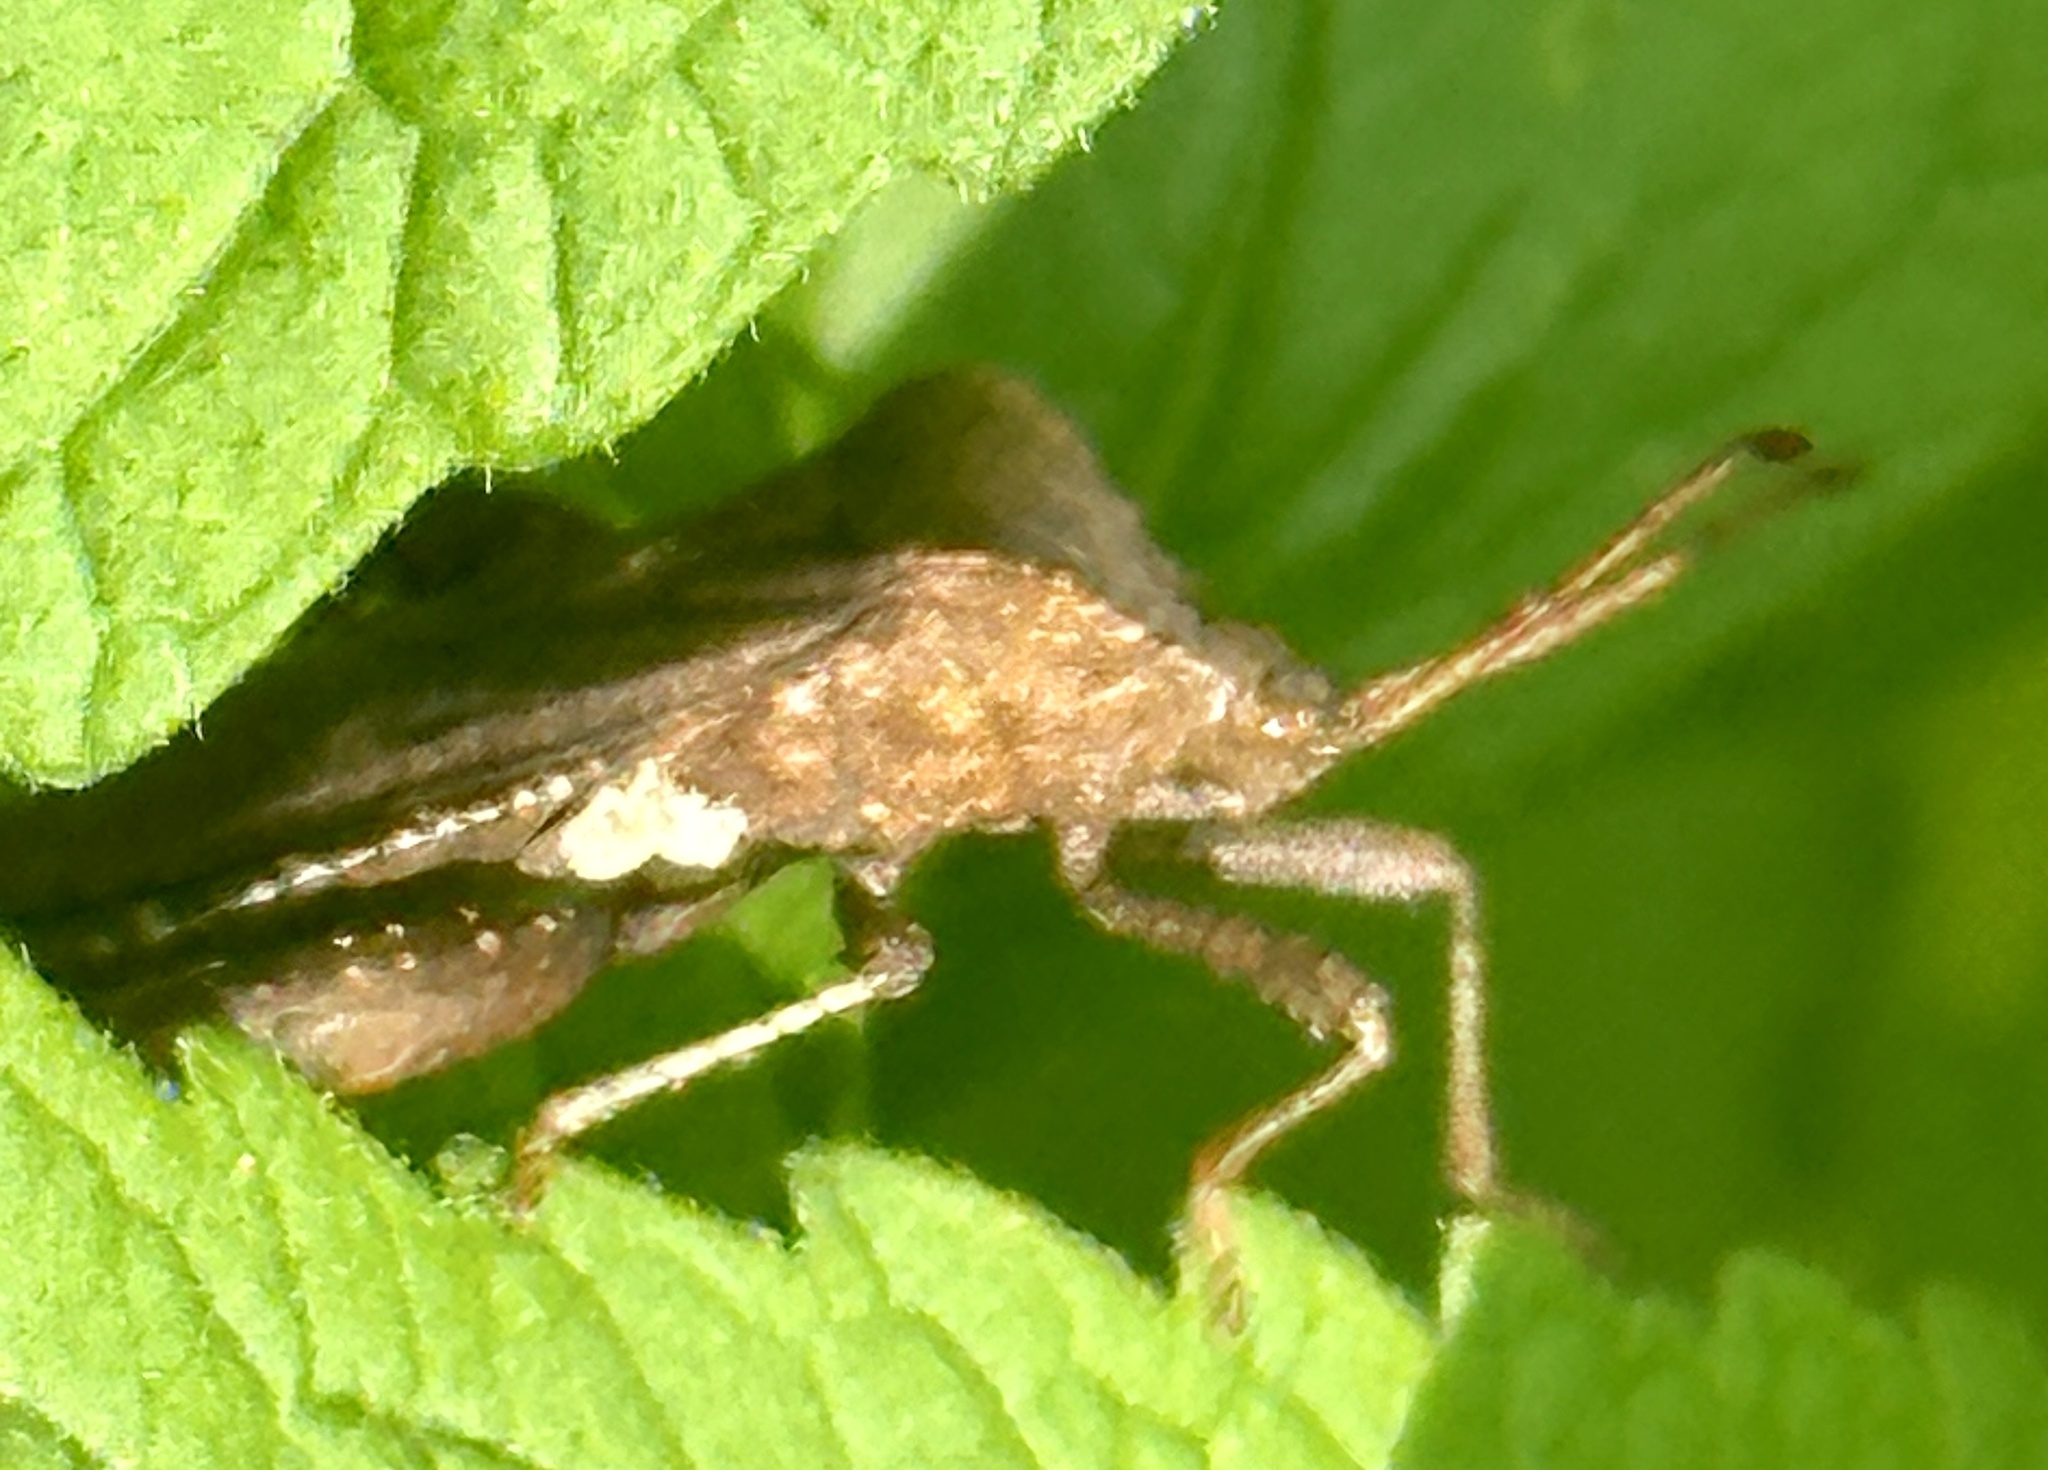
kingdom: Animalia
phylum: Arthropoda
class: Insecta
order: Hemiptera
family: Coreidae
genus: Euthochtha
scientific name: Euthochtha galeator
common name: Helmeted squash bug
